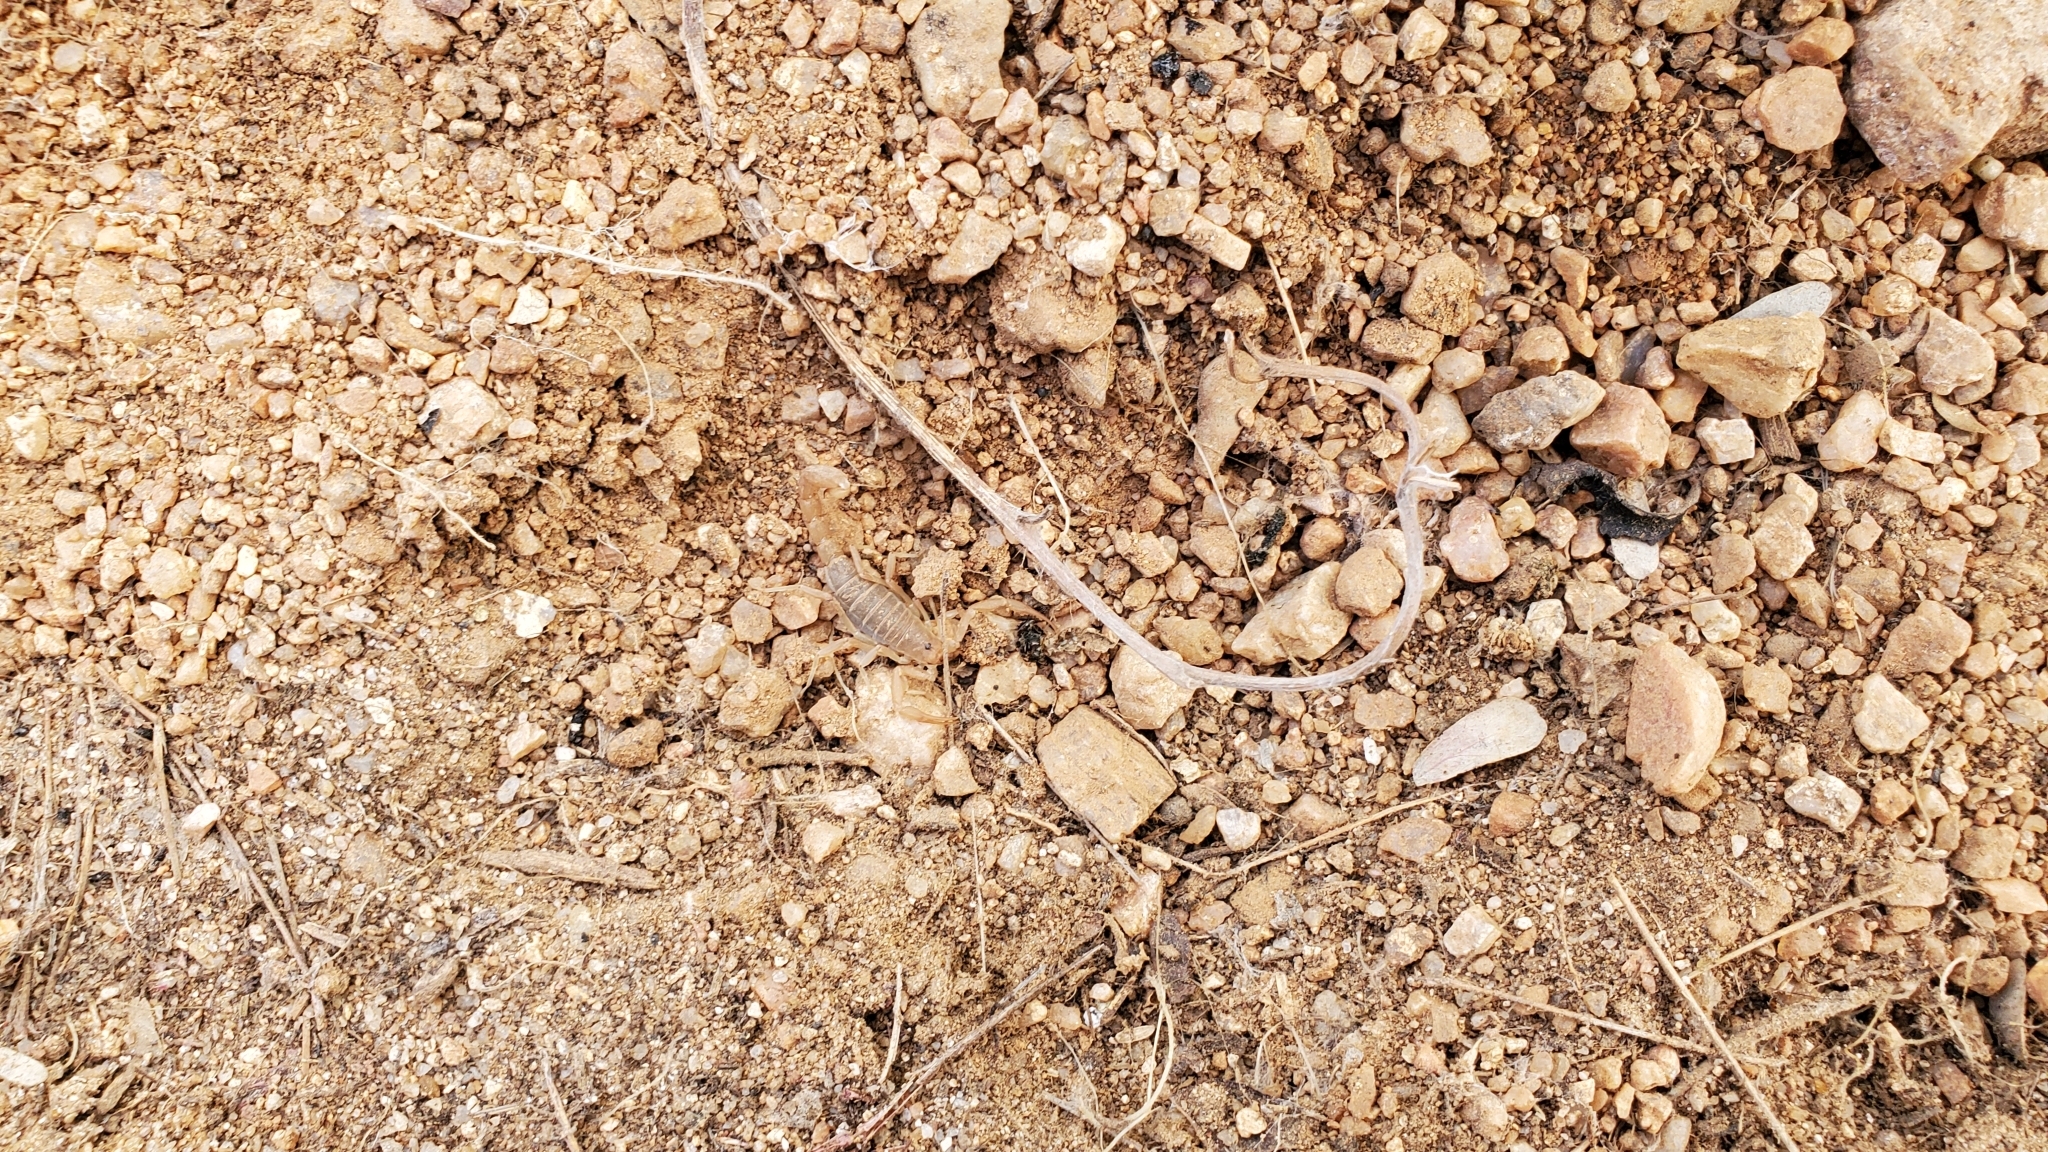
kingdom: Animalia
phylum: Arthropoda
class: Arachnida
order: Scorpiones
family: Vaejovidae
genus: Paravaejovis
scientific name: Paravaejovis confusus
